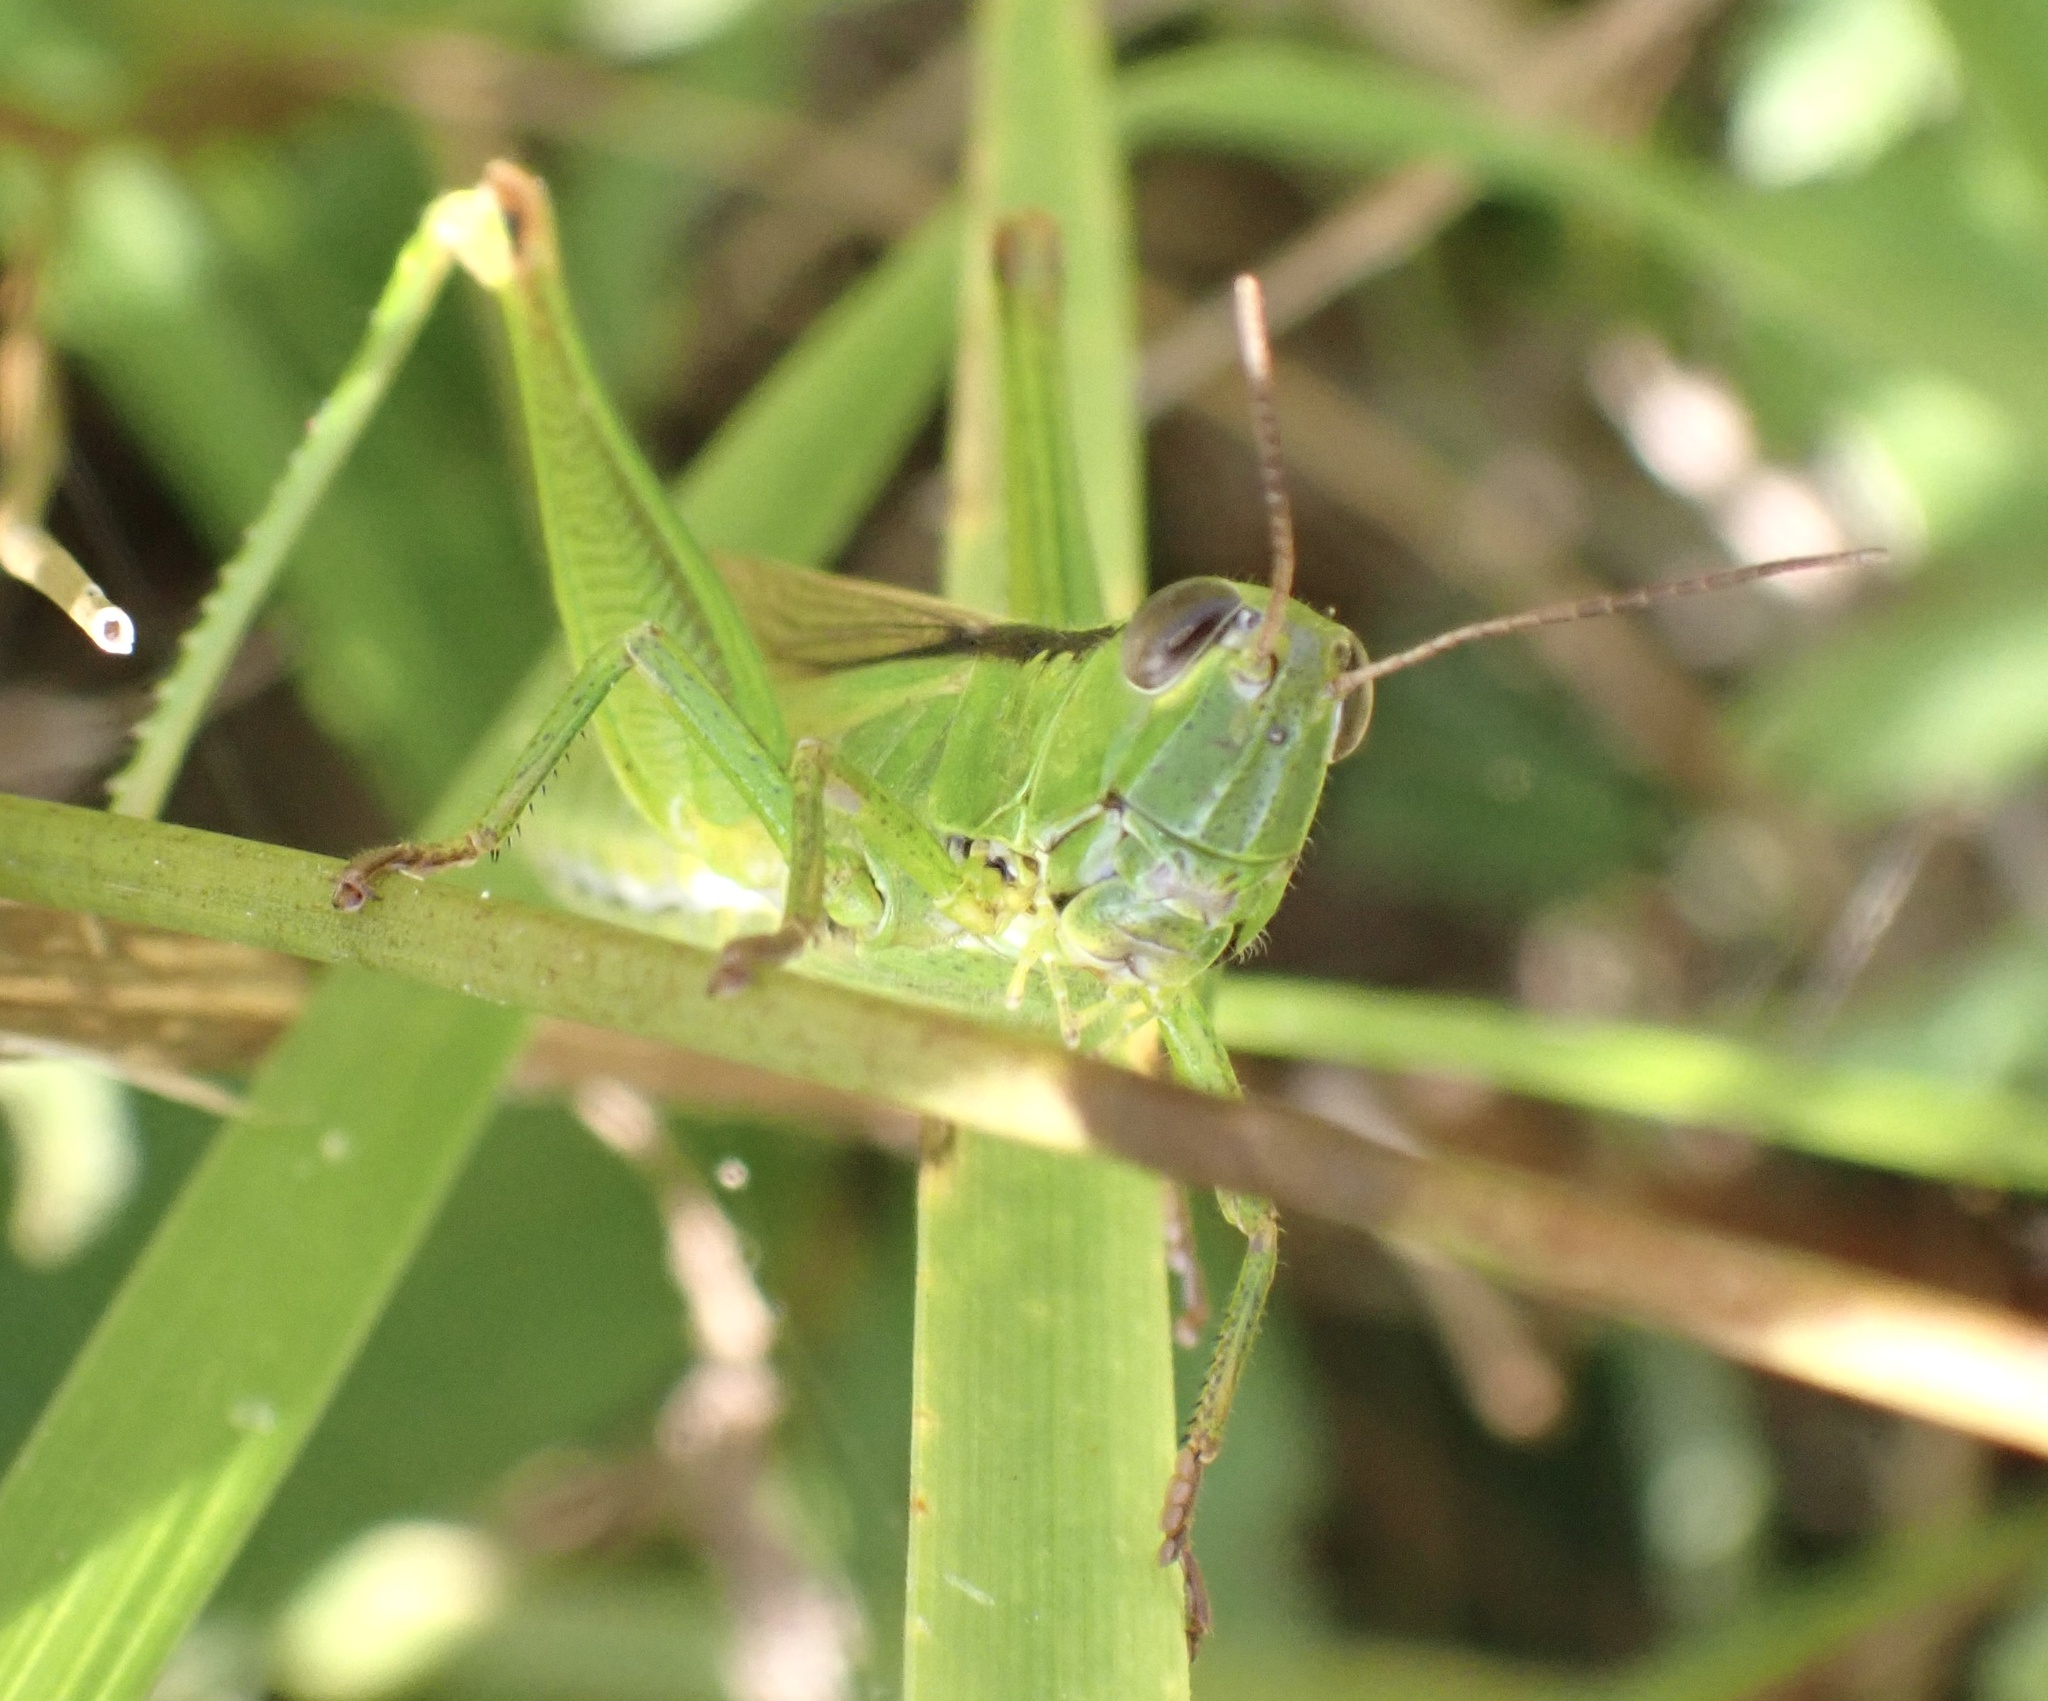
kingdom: Animalia
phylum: Arthropoda
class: Insecta
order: Orthoptera
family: Acrididae
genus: Mecostethus
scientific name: Mecostethus parapleurus
